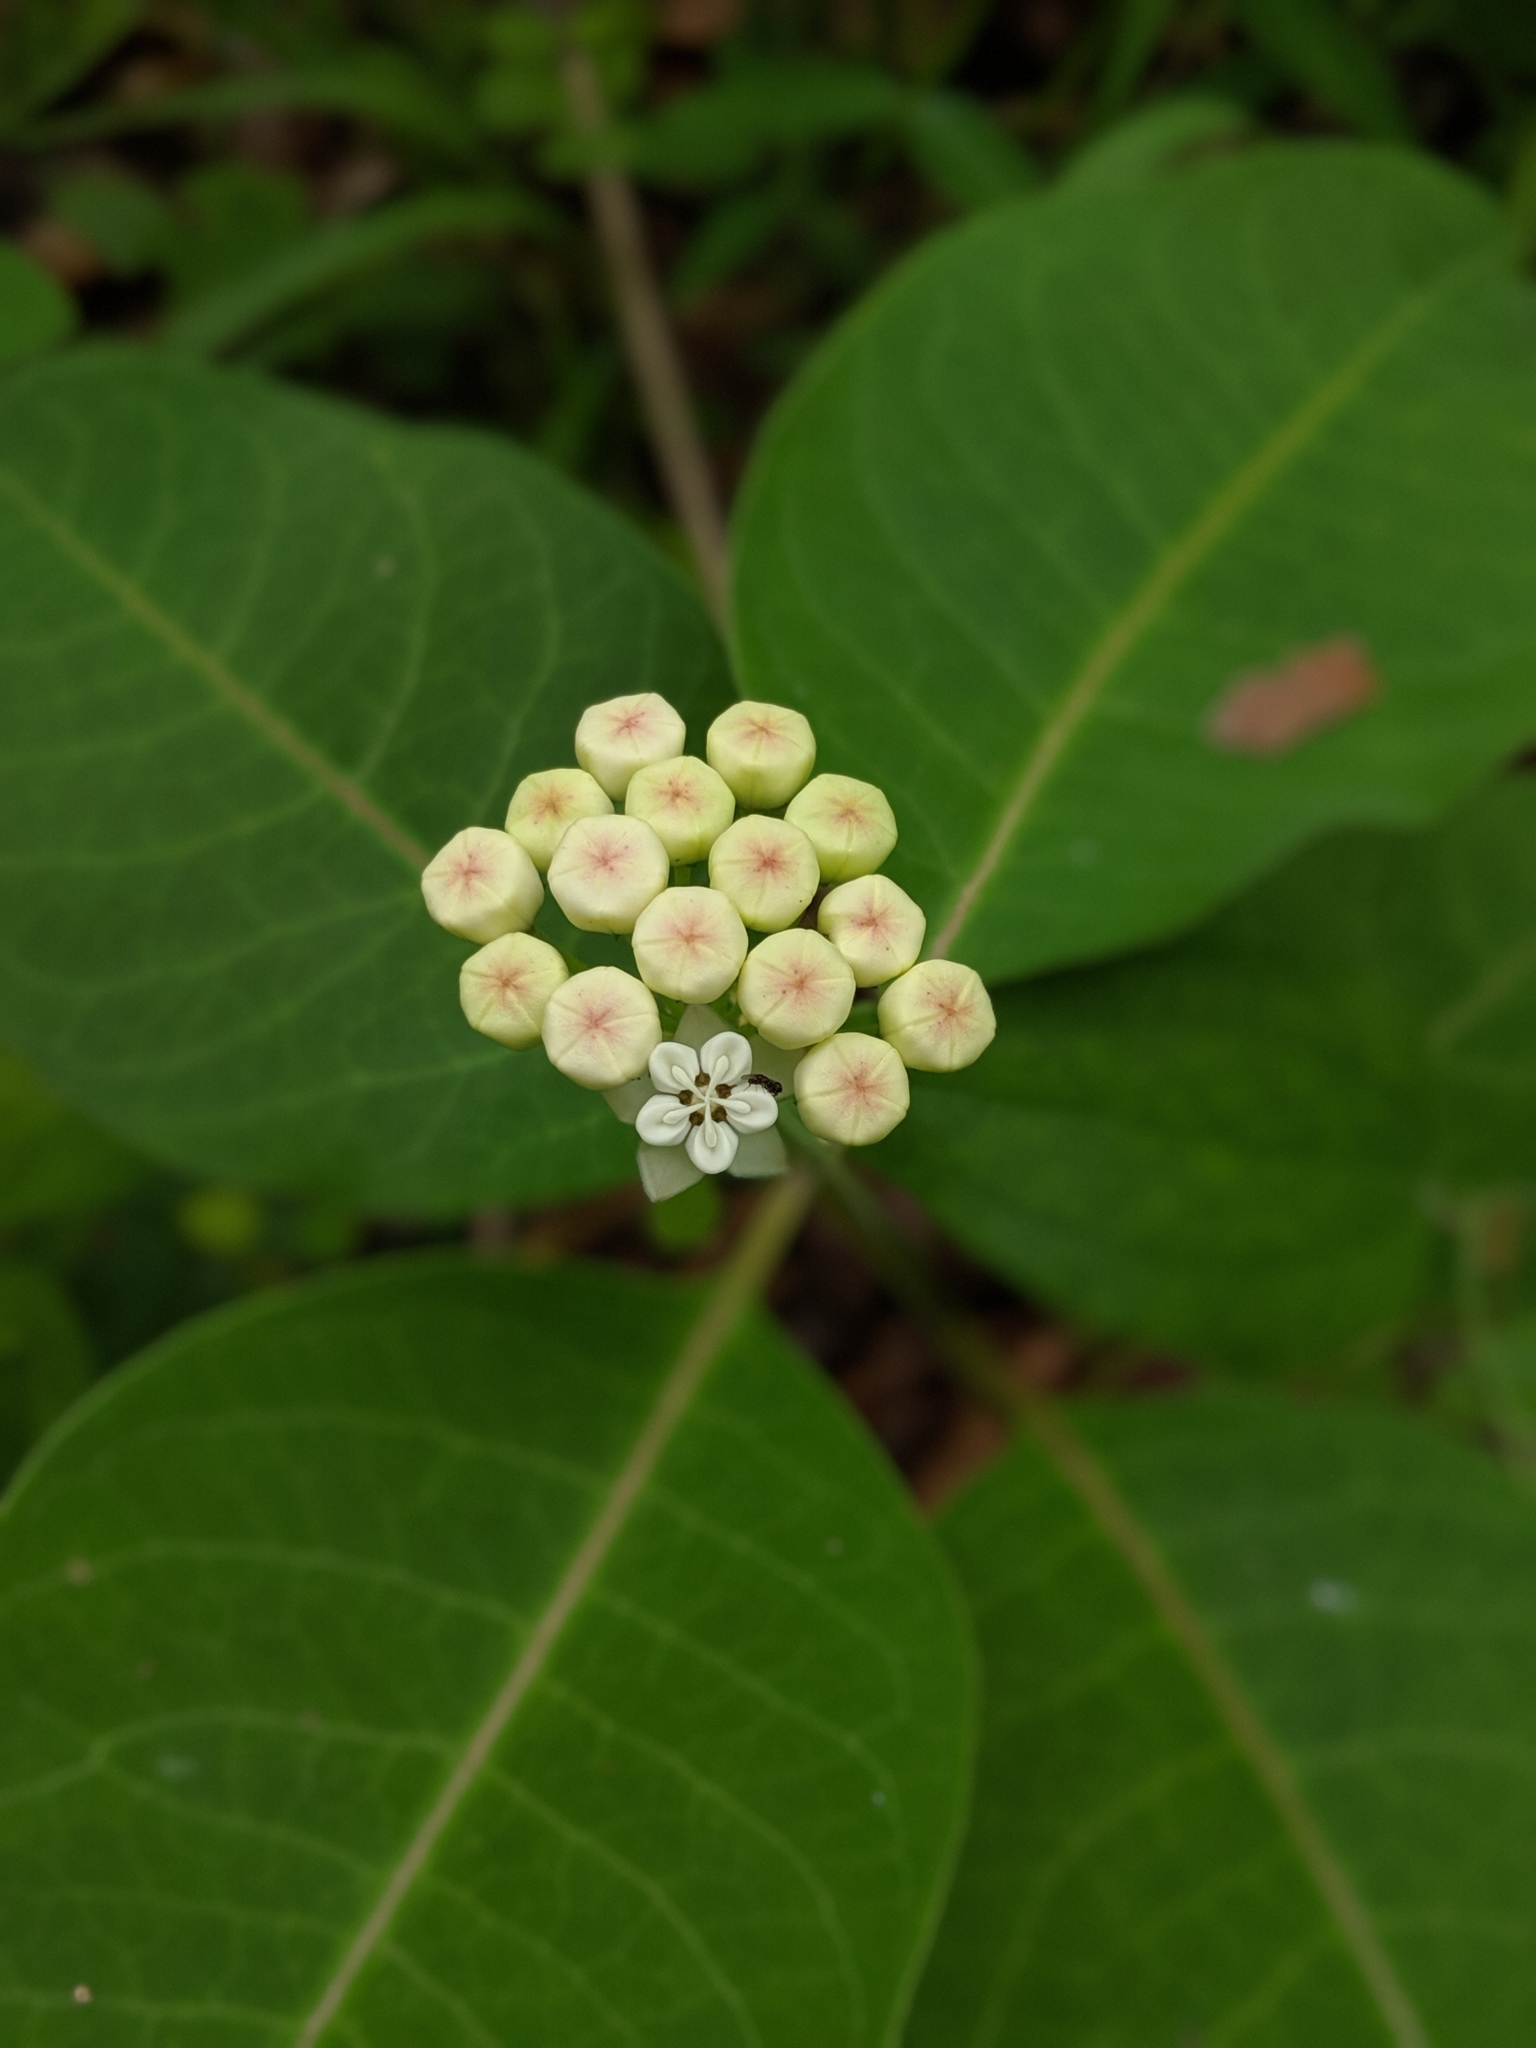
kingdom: Plantae
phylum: Tracheophyta
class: Magnoliopsida
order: Gentianales
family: Apocynaceae
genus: Asclepias
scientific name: Asclepias variegata
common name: Variegated milkweed
